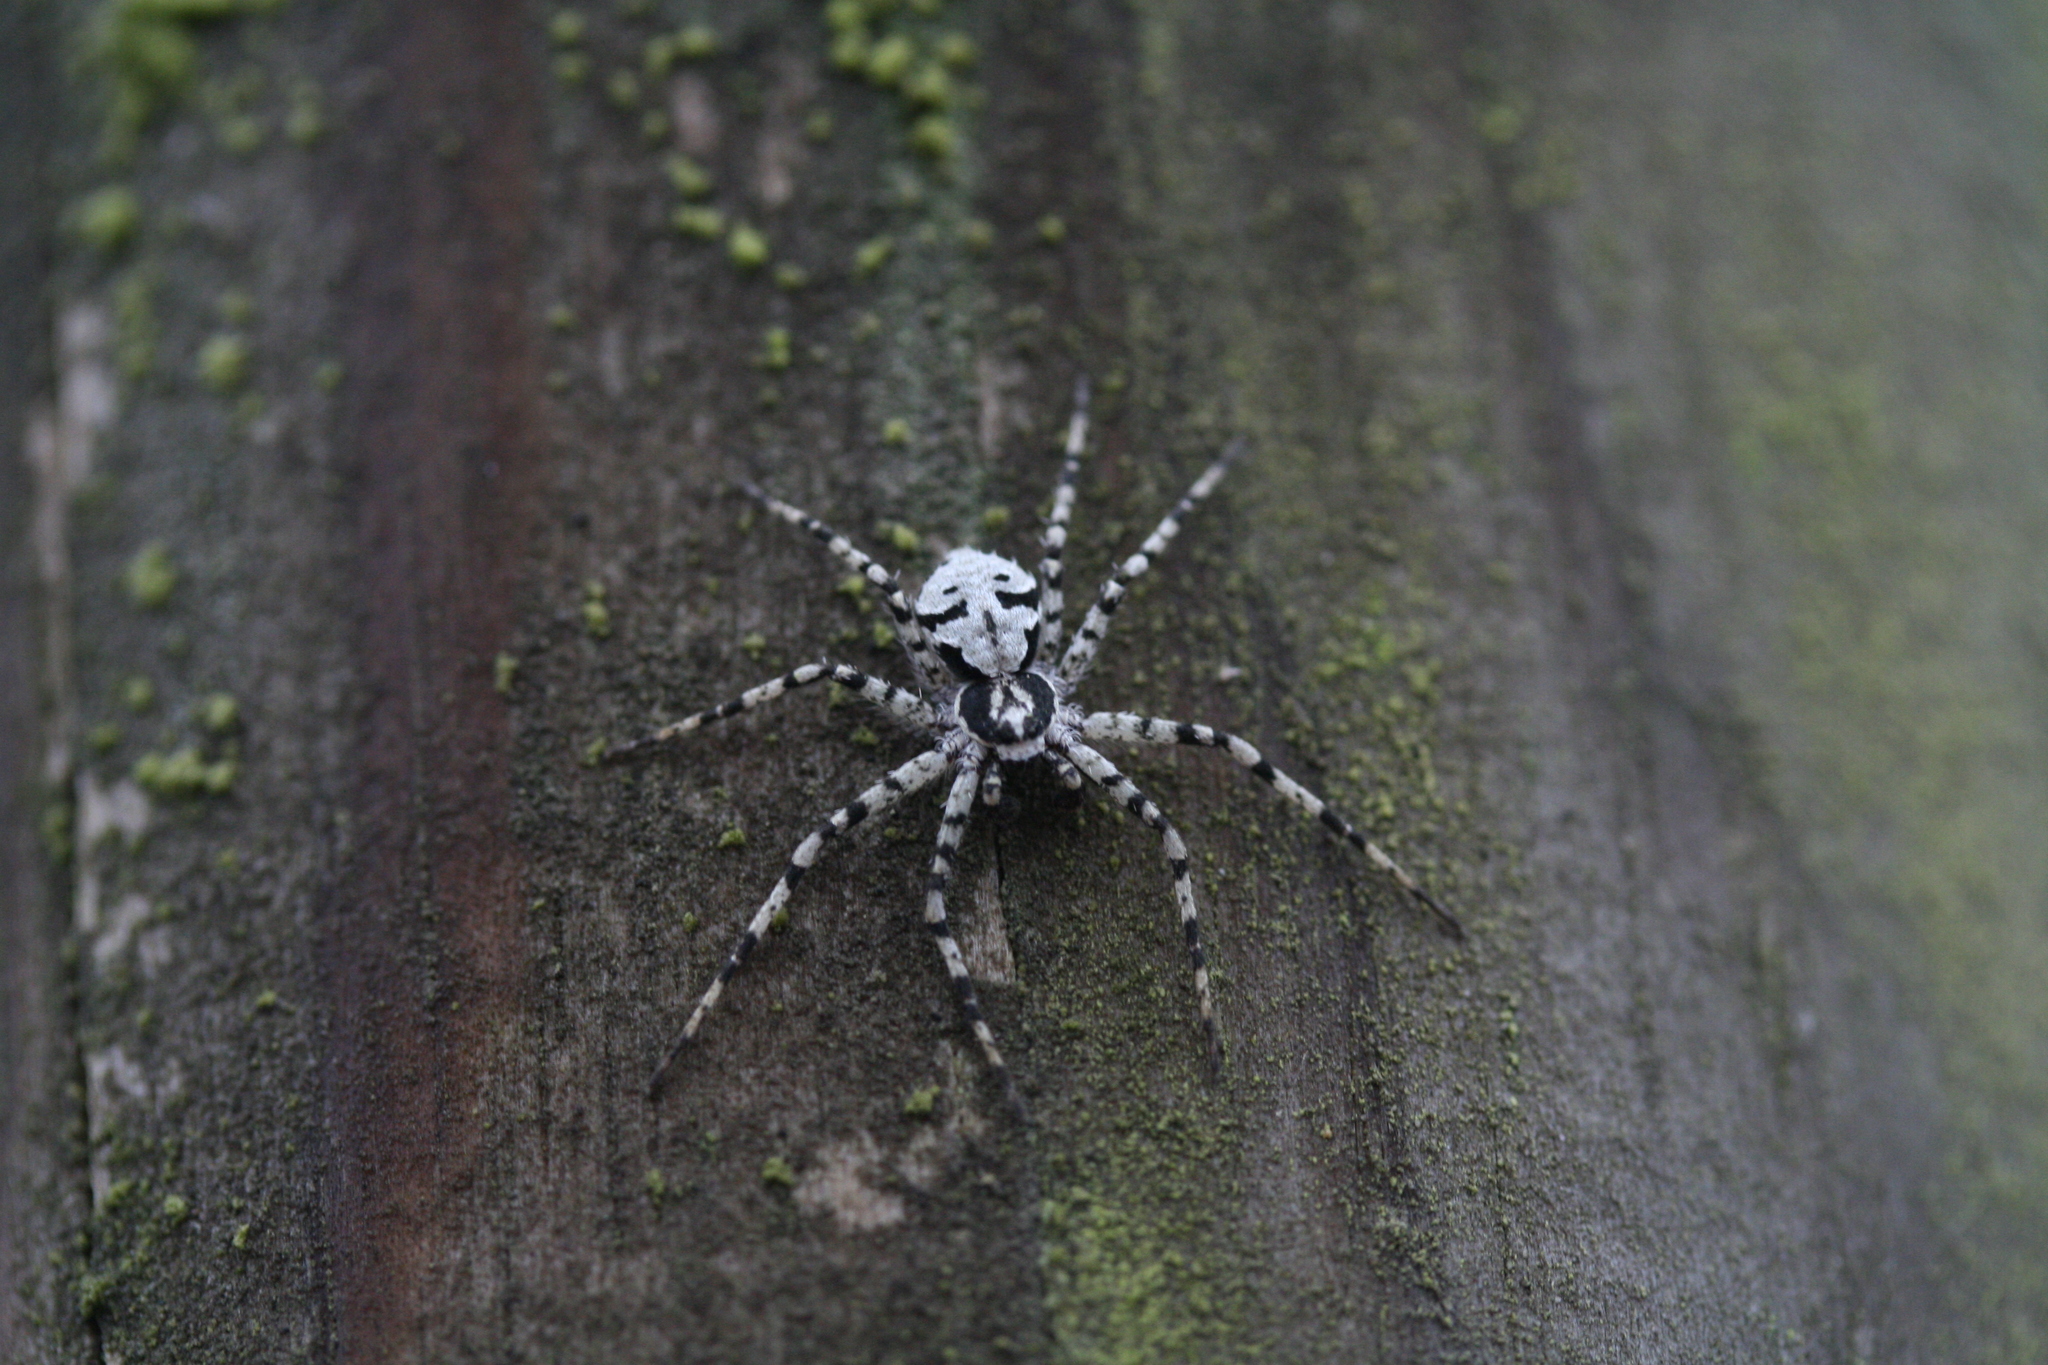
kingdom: Animalia
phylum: Arthropoda
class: Arachnida
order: Araneae
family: Philodromidae
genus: Philodromus
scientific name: Philodromus margaritatus
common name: Lichen running-spider
